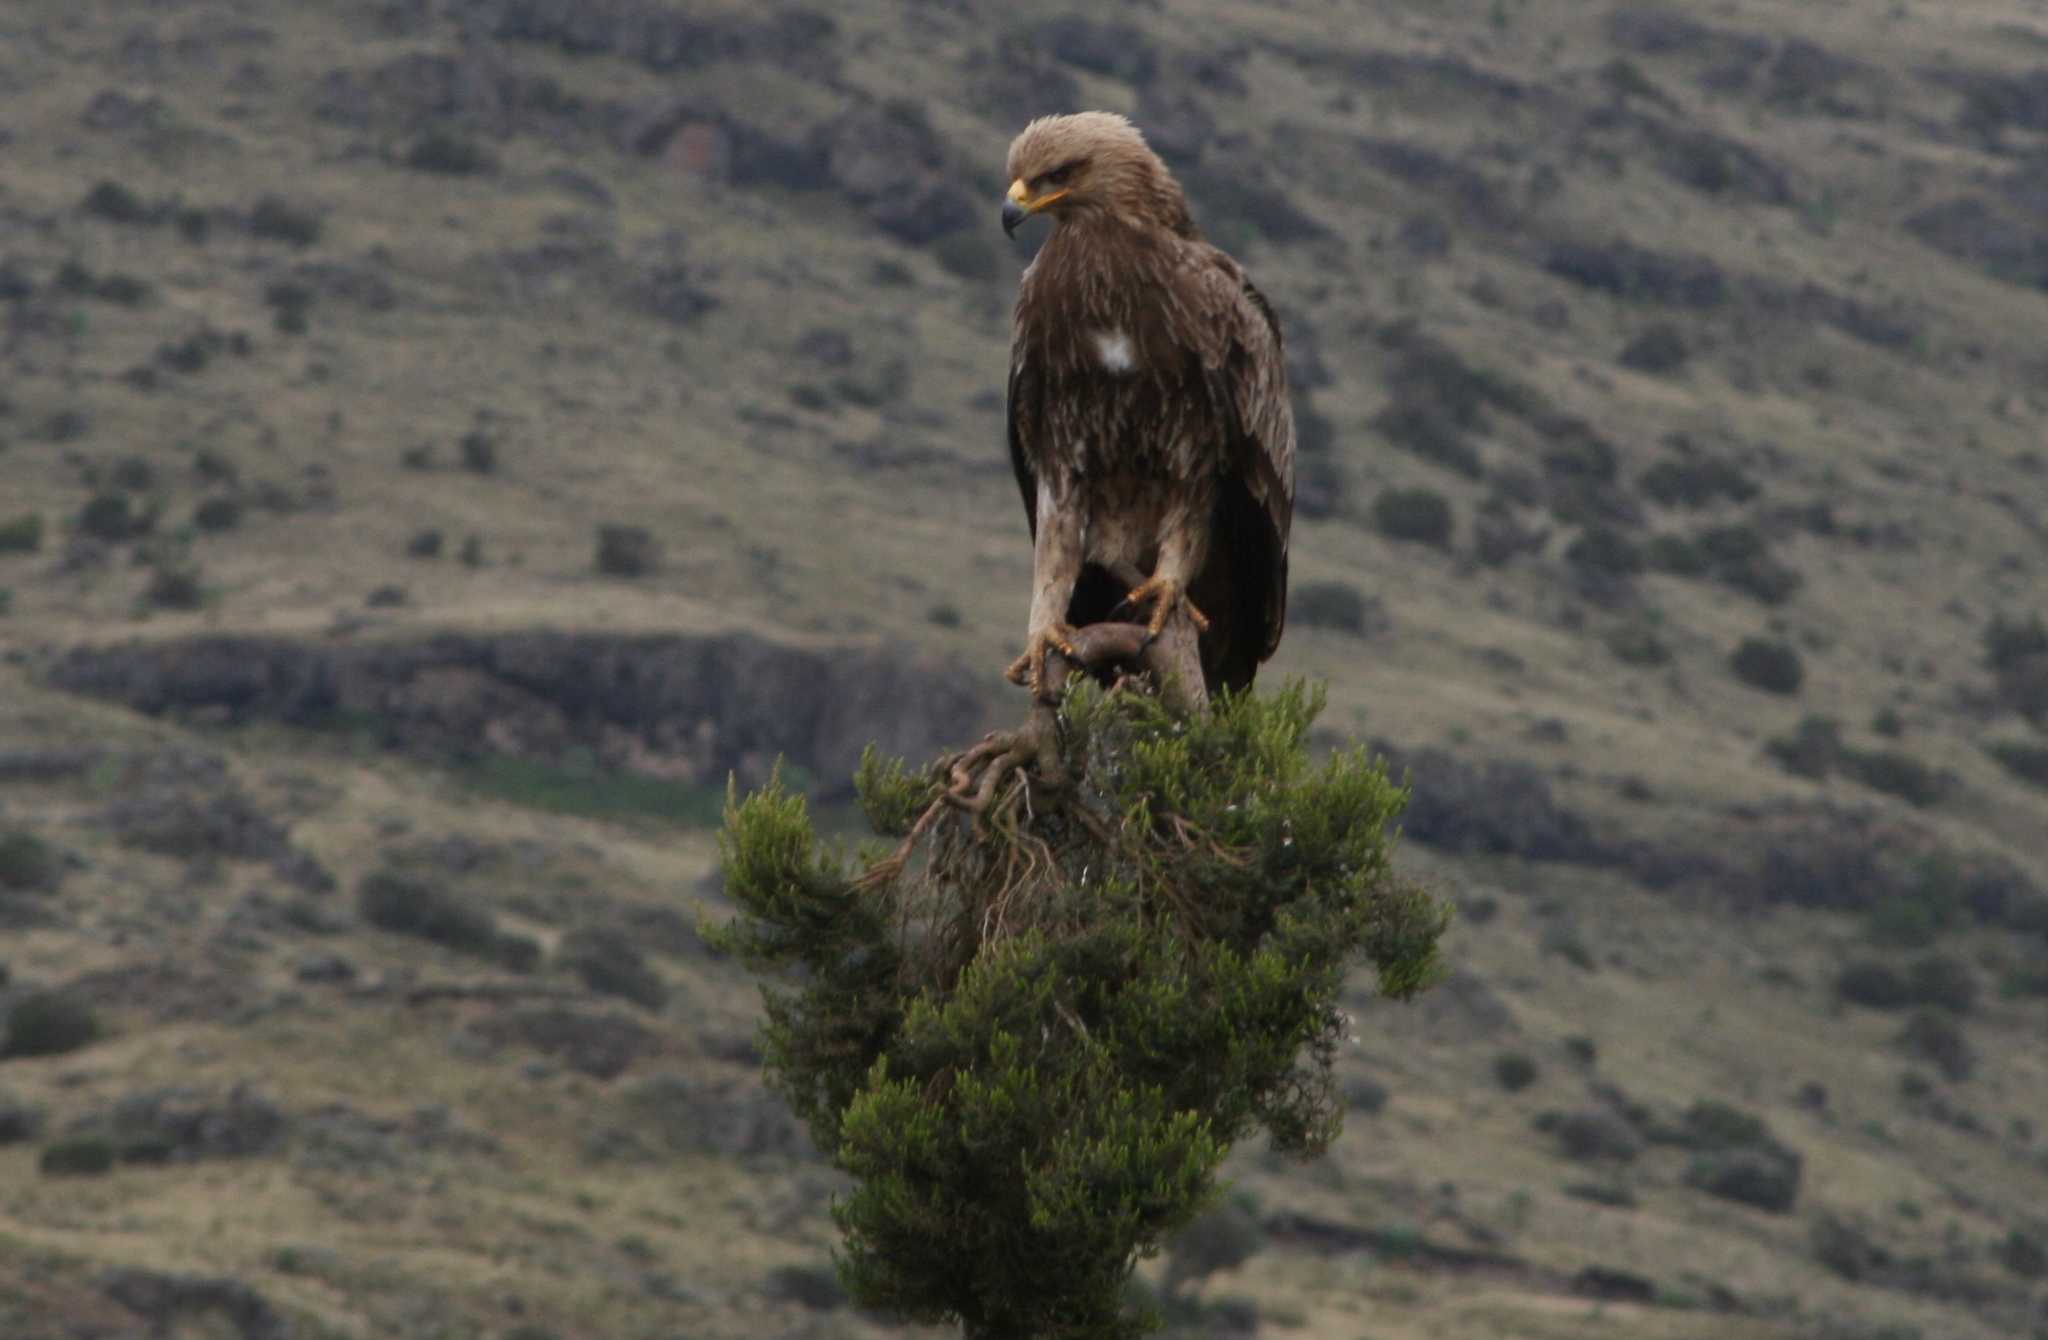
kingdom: Animalia
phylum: Chordata
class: Aves
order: Accipitriformes
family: Accipitridae
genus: Aquila
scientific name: Aquila heliaca
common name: Eastern imperial eagle
